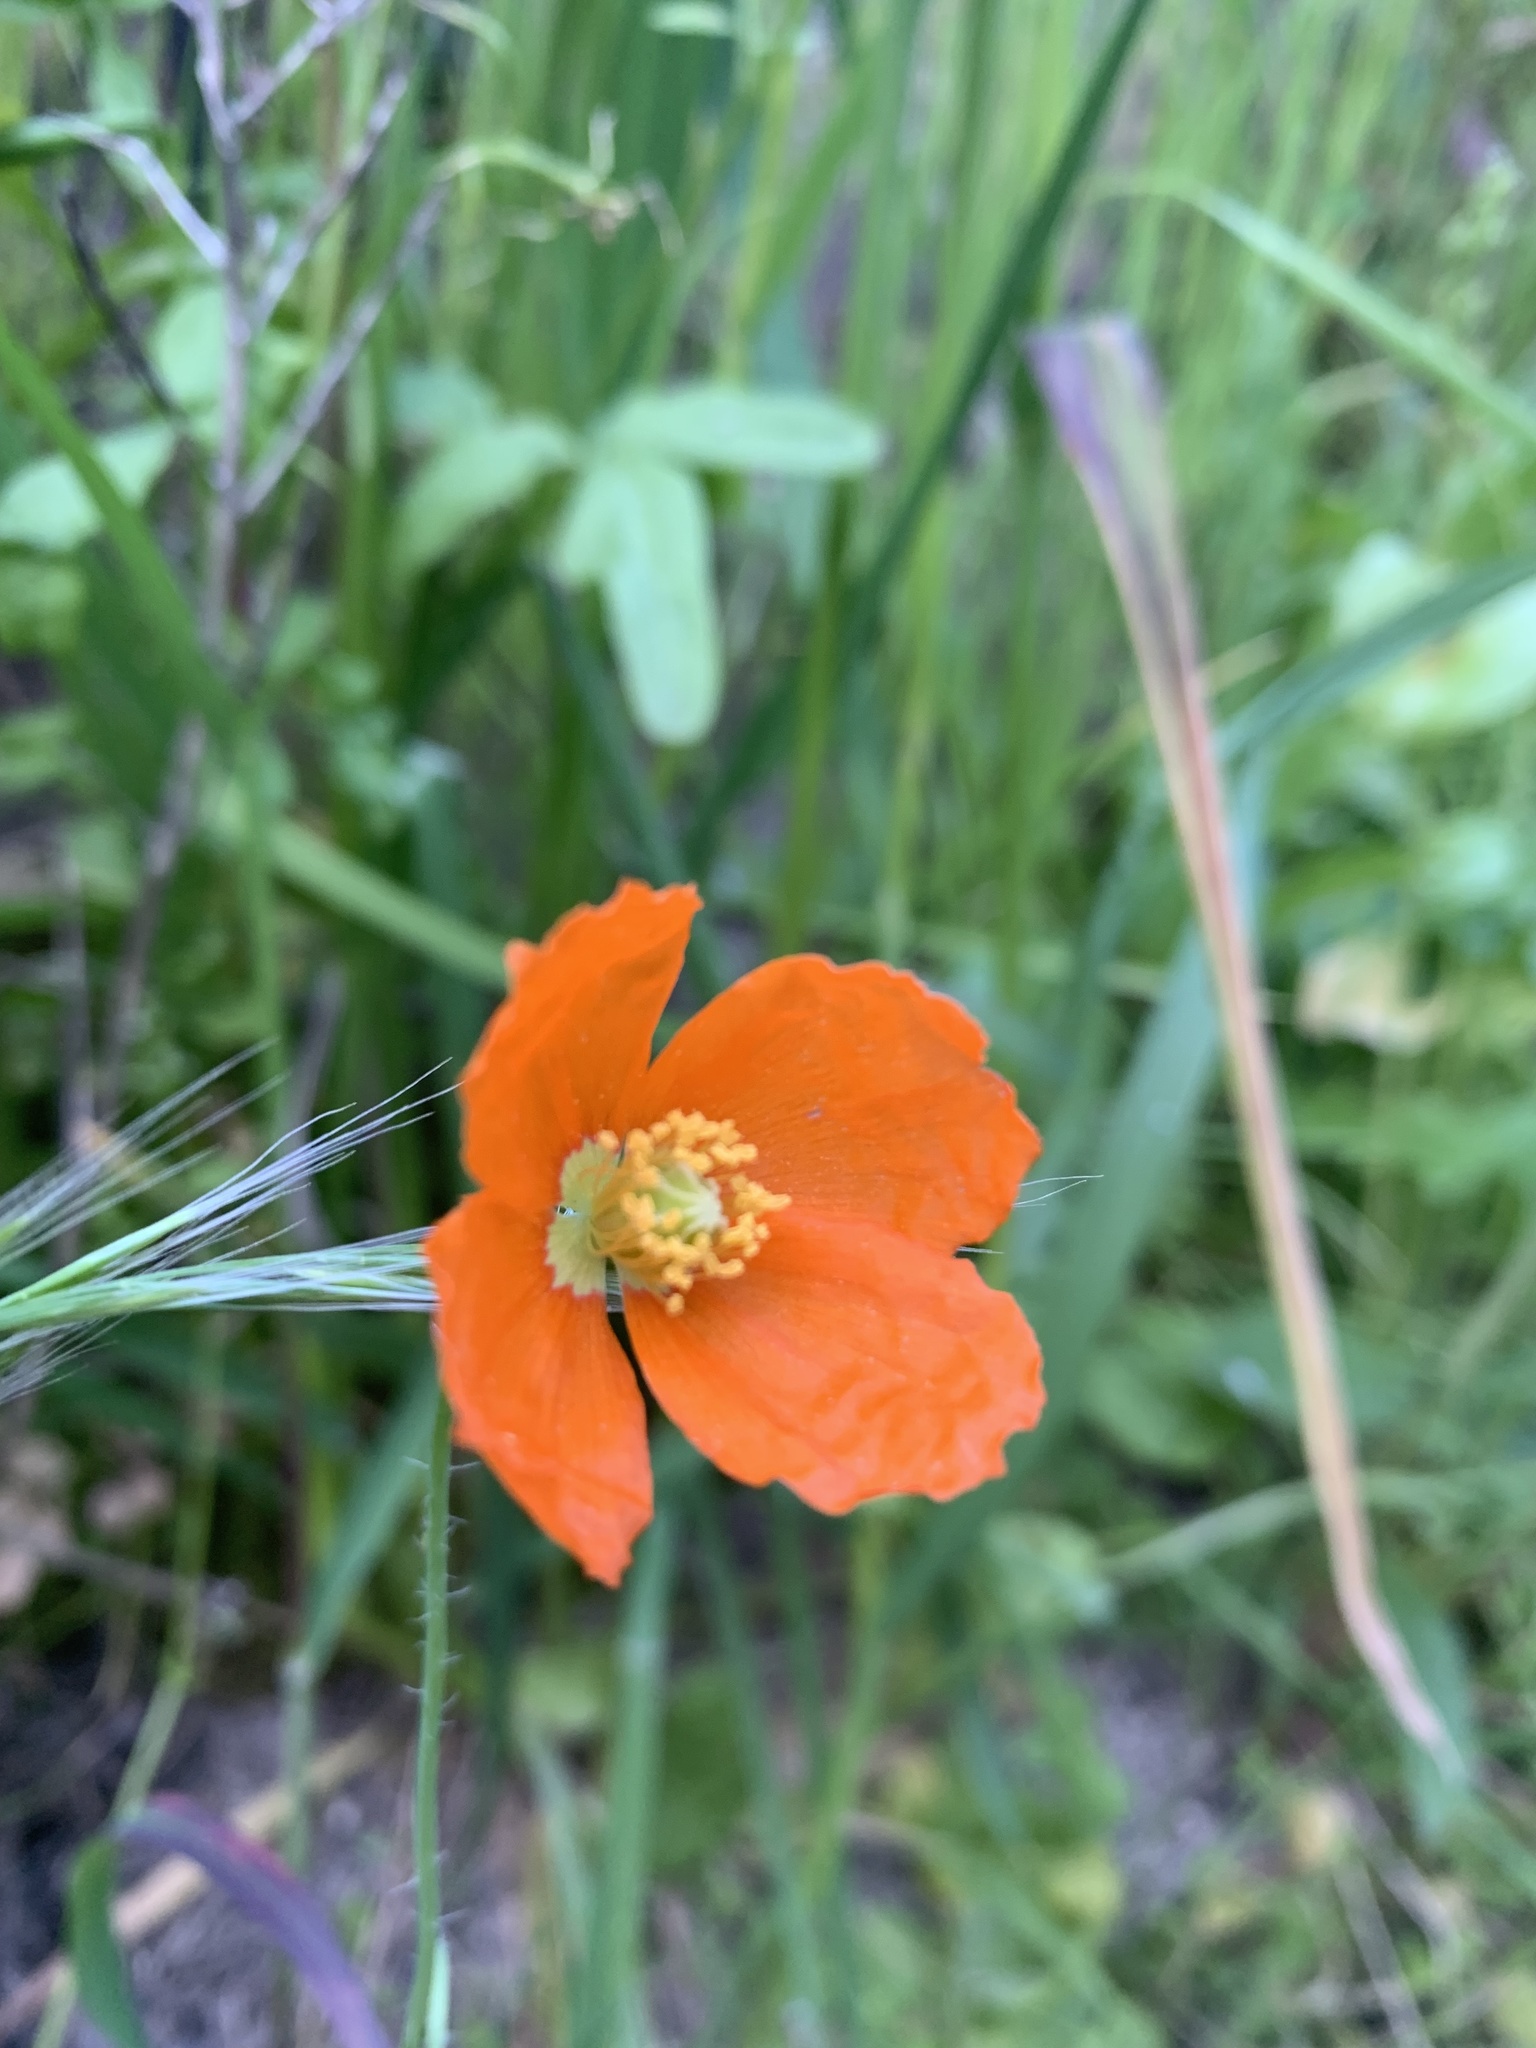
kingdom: Plantae
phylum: Tracheophyta
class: Magnoliopsida
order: Ranunculales
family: Papaveraceae
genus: Papaver
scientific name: Papaver californicum
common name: Fire poppy
